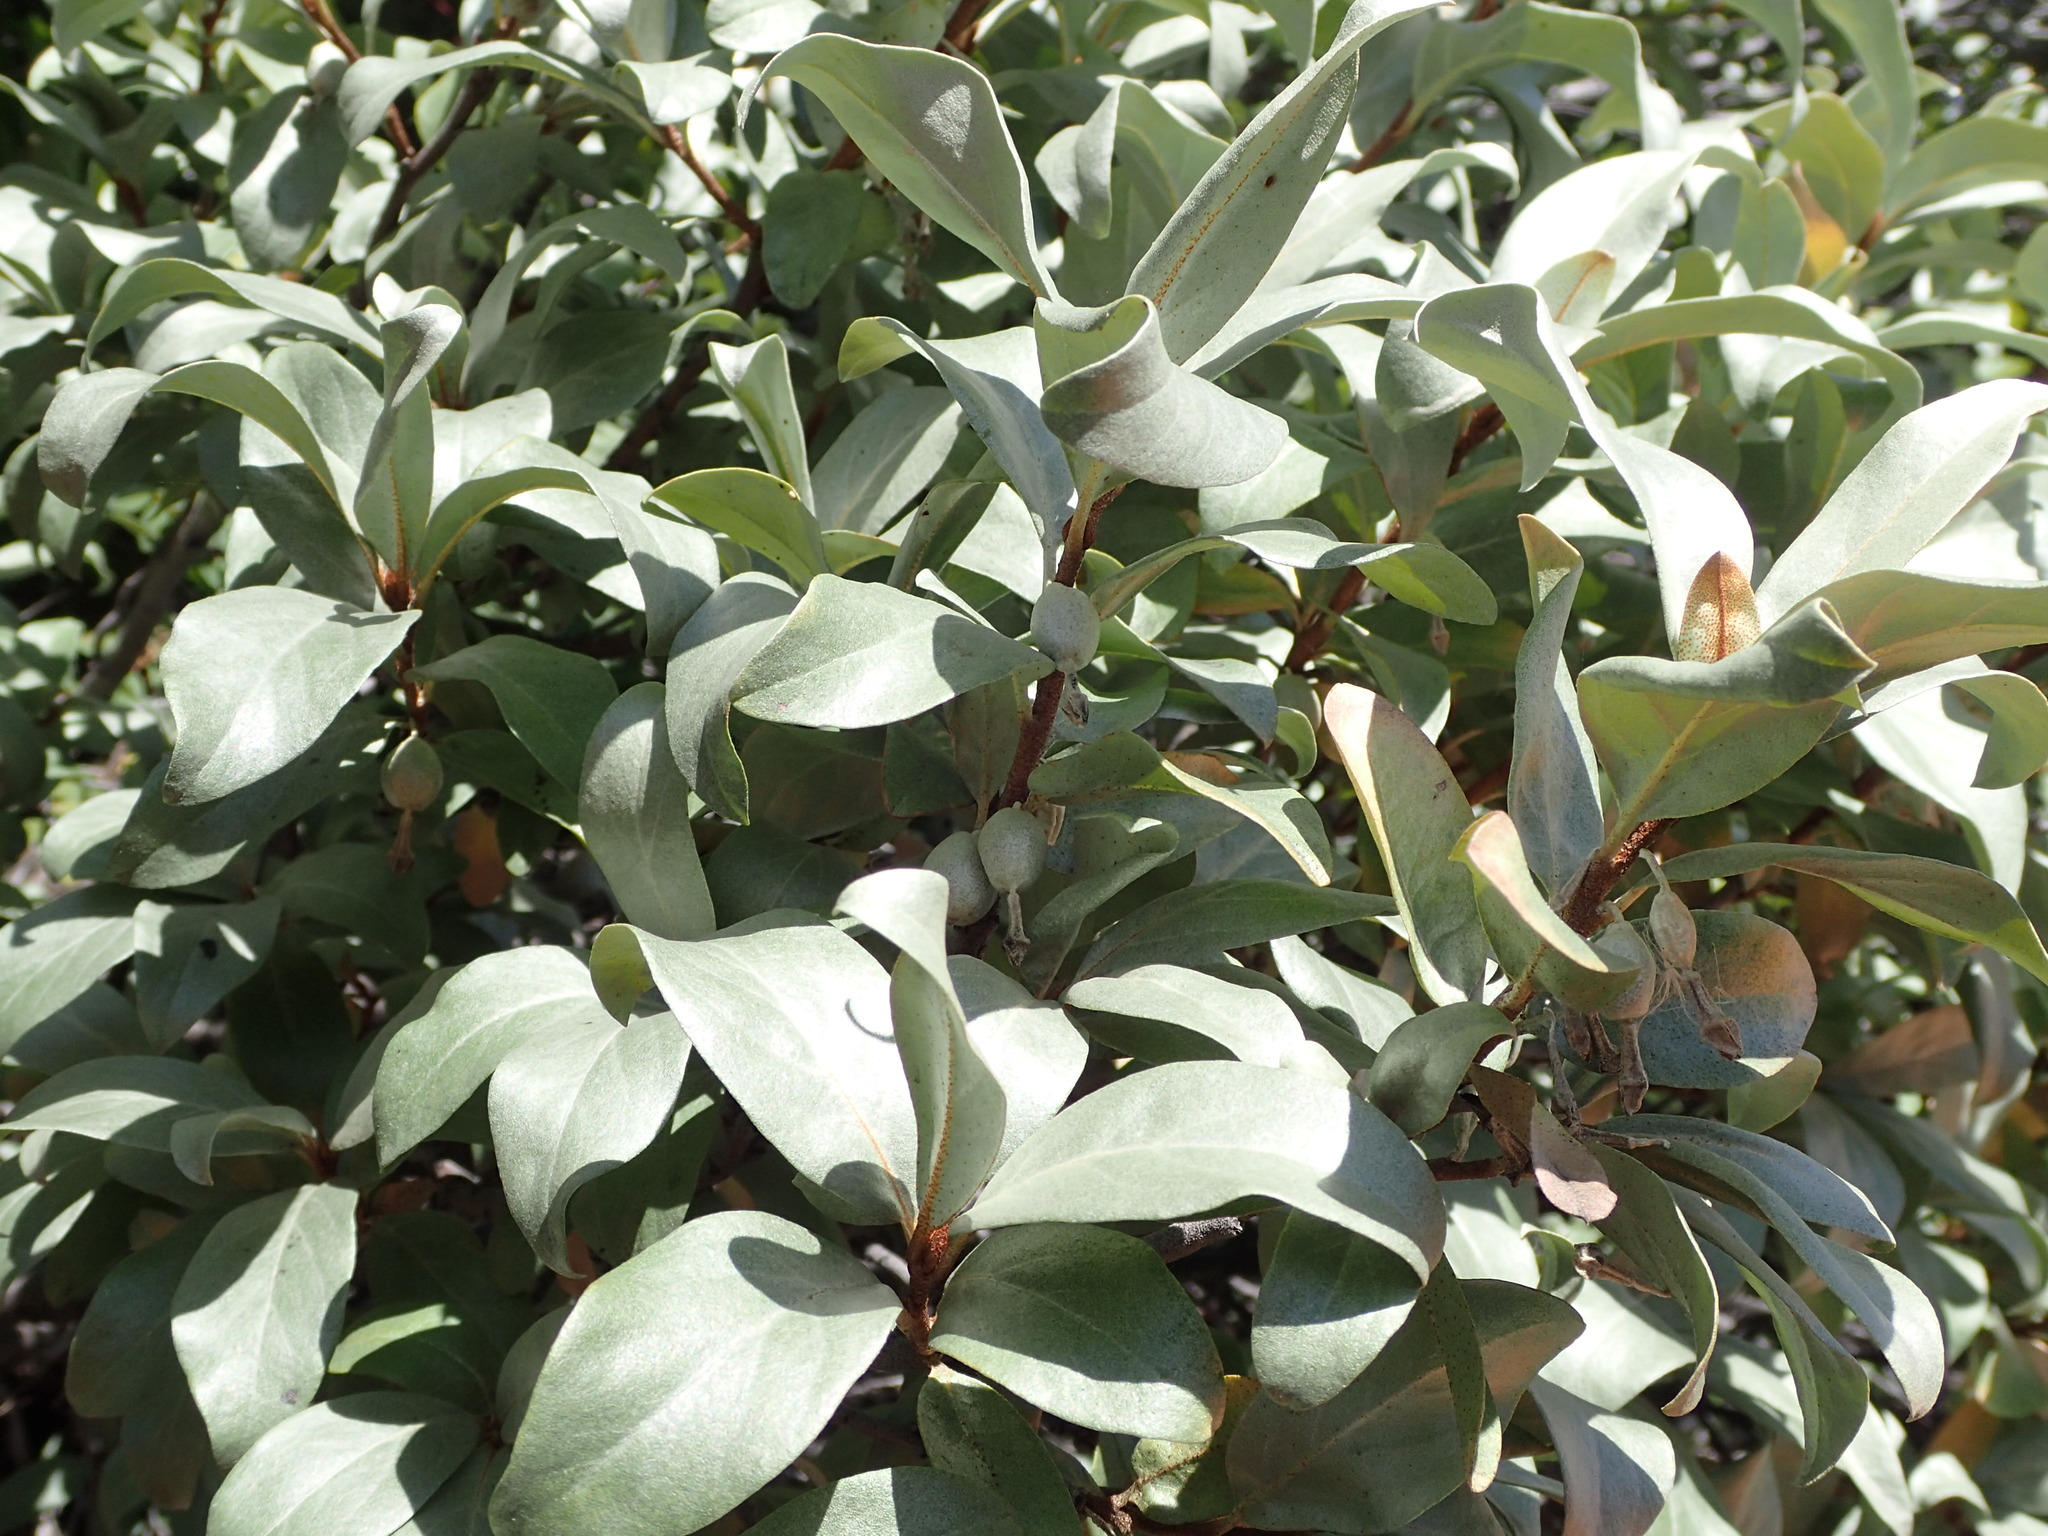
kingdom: Plantae
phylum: Tracheophyta
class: Magnoliopsida
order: Rosales
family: Elaeagnaceae
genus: Elaeagnus
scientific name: Elaeagnus commutata
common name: Silverberry
